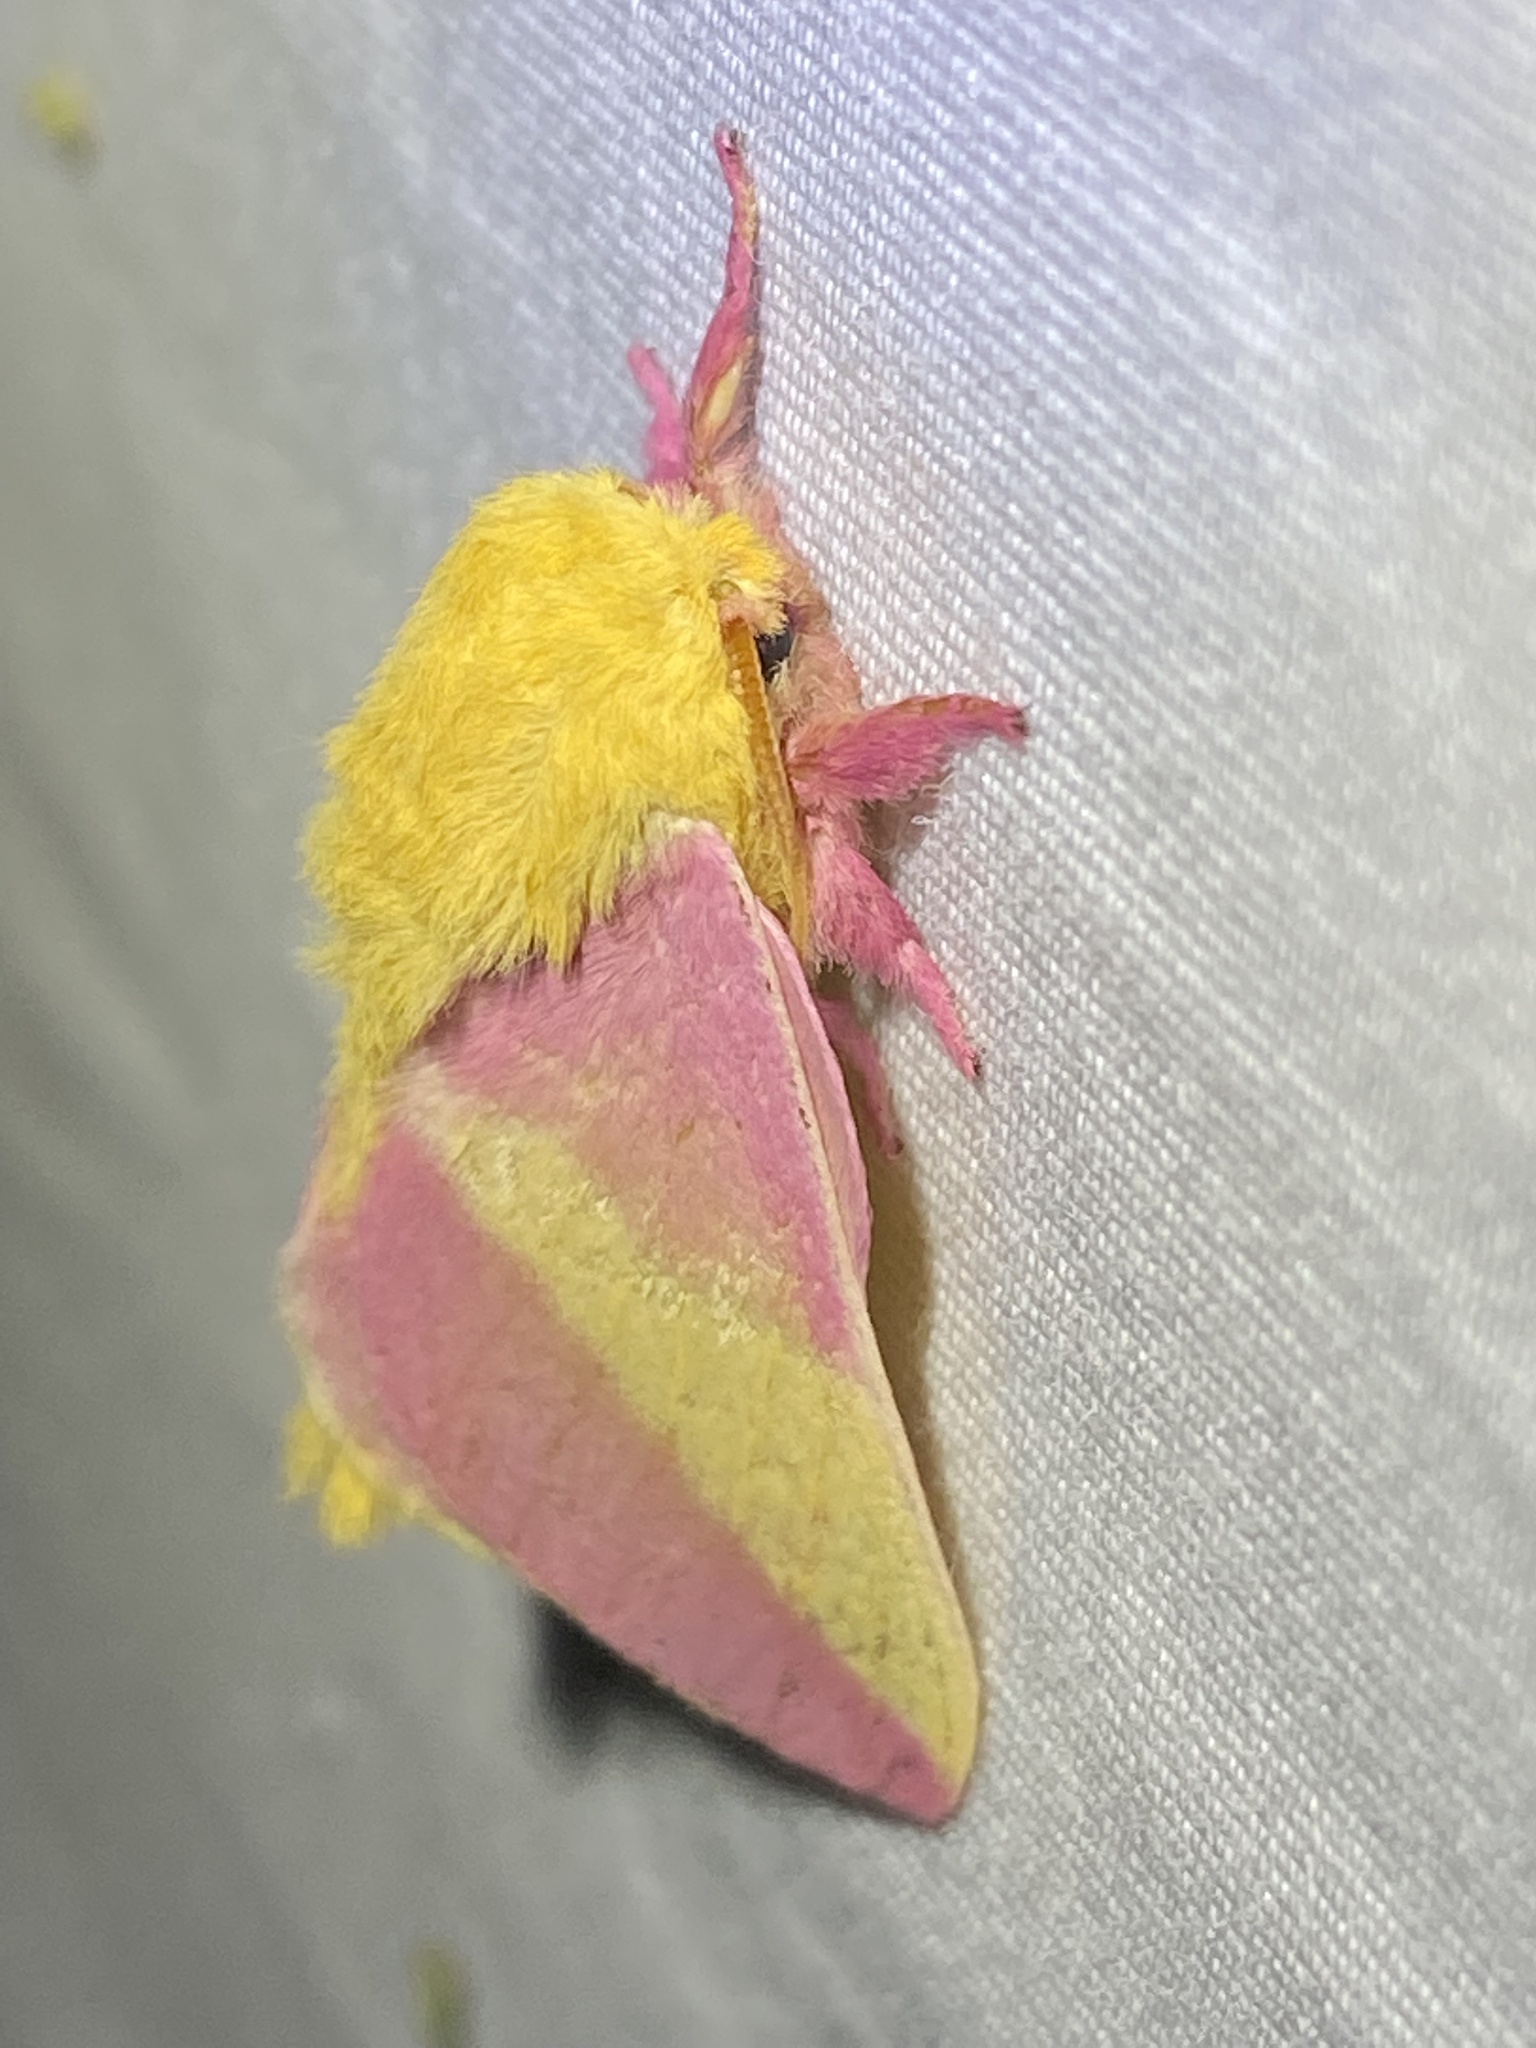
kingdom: Animalia
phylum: Arthropoda
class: Insecta
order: Lepidoptera
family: Saturniidae
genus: Dryocampa
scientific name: Dryocampa rubicunda
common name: Rosy maple moth
